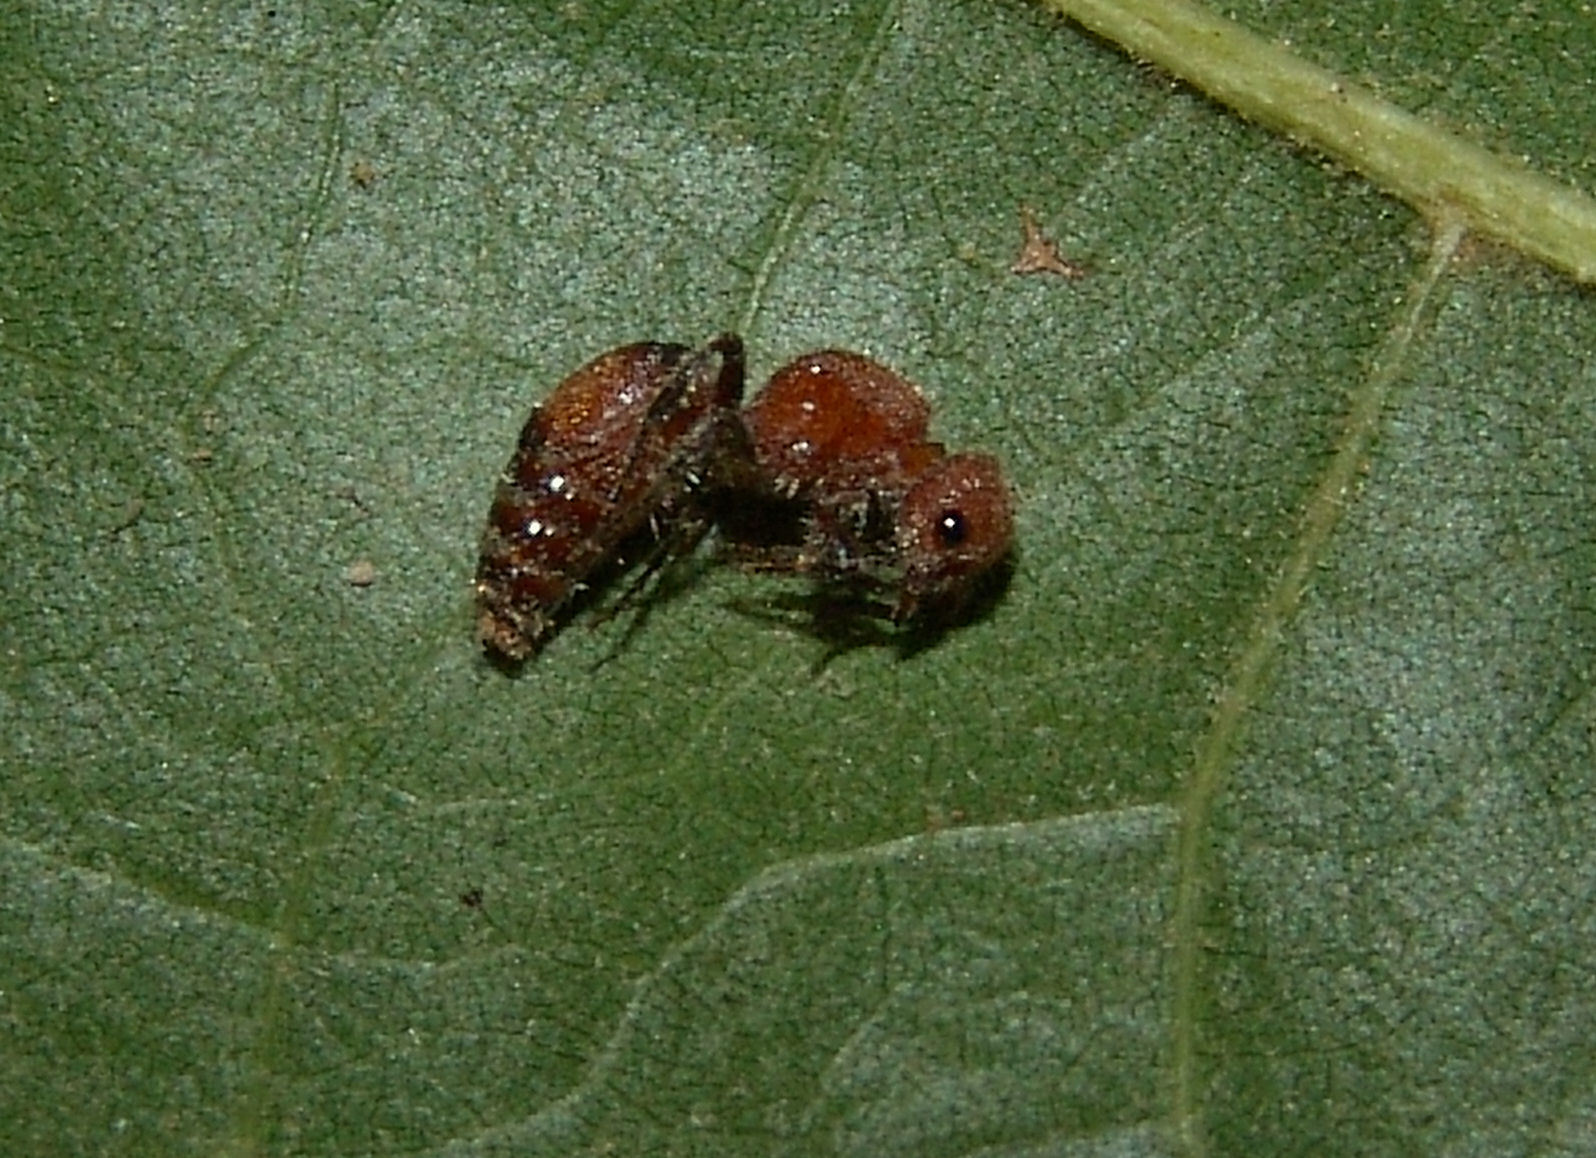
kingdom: Animalia
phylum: Arthropoda
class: Insecta
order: Hymenoptera
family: Mutillidae
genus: Pseudomethoca
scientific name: Pseudomethoca
